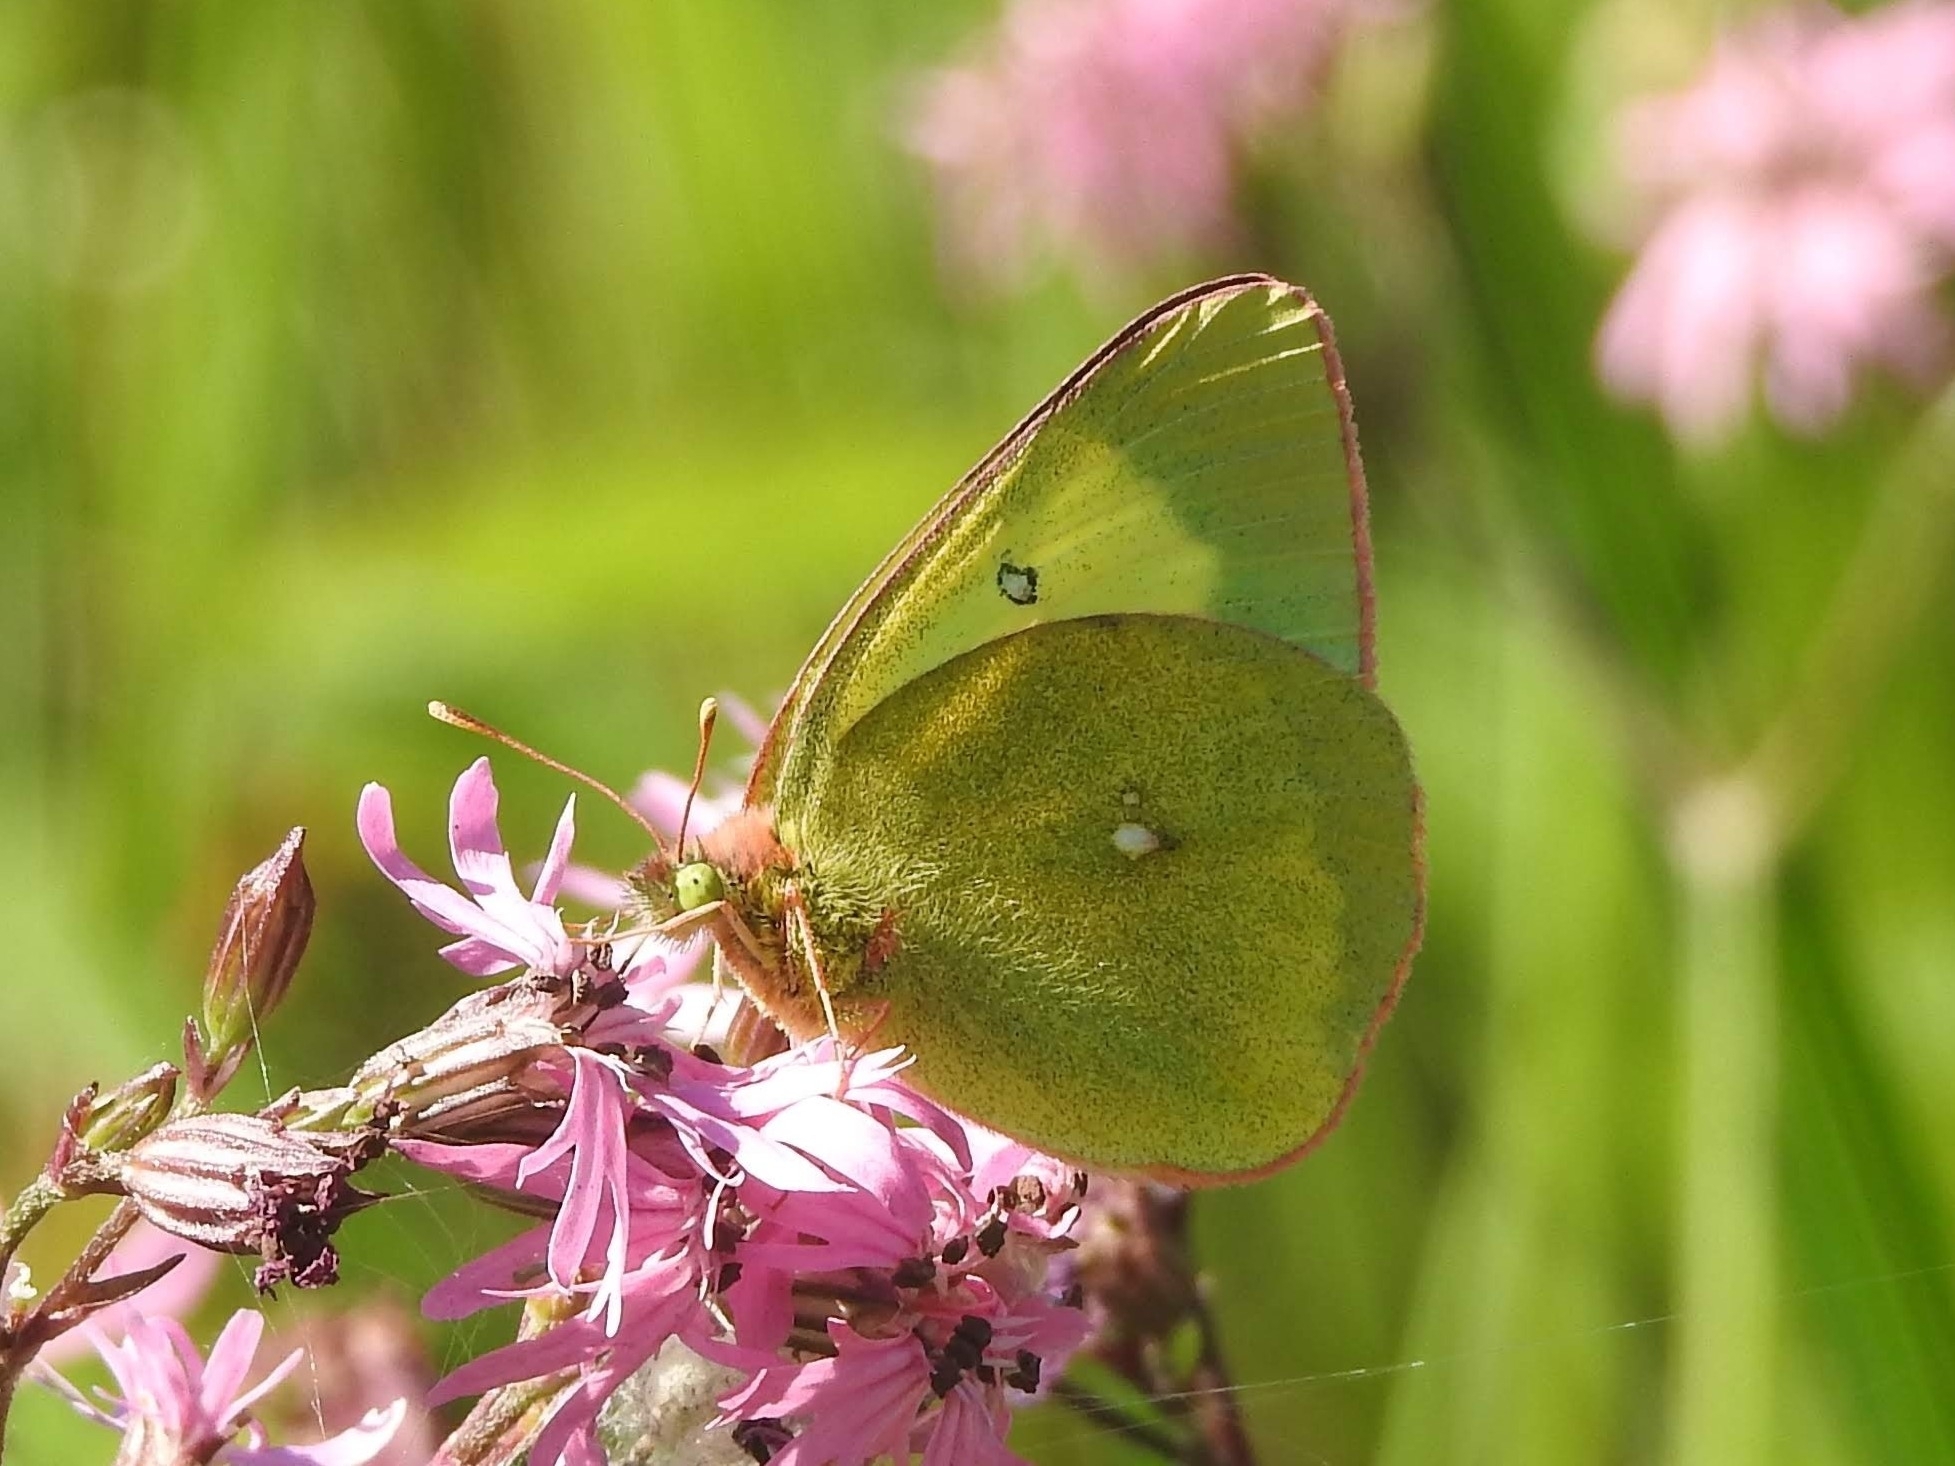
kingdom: Animalia
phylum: Arthropoda
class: Insecta
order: Lepidoptera
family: Pieridae
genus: Colias
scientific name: Colias palaeno
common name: Moorland clouded yellow
